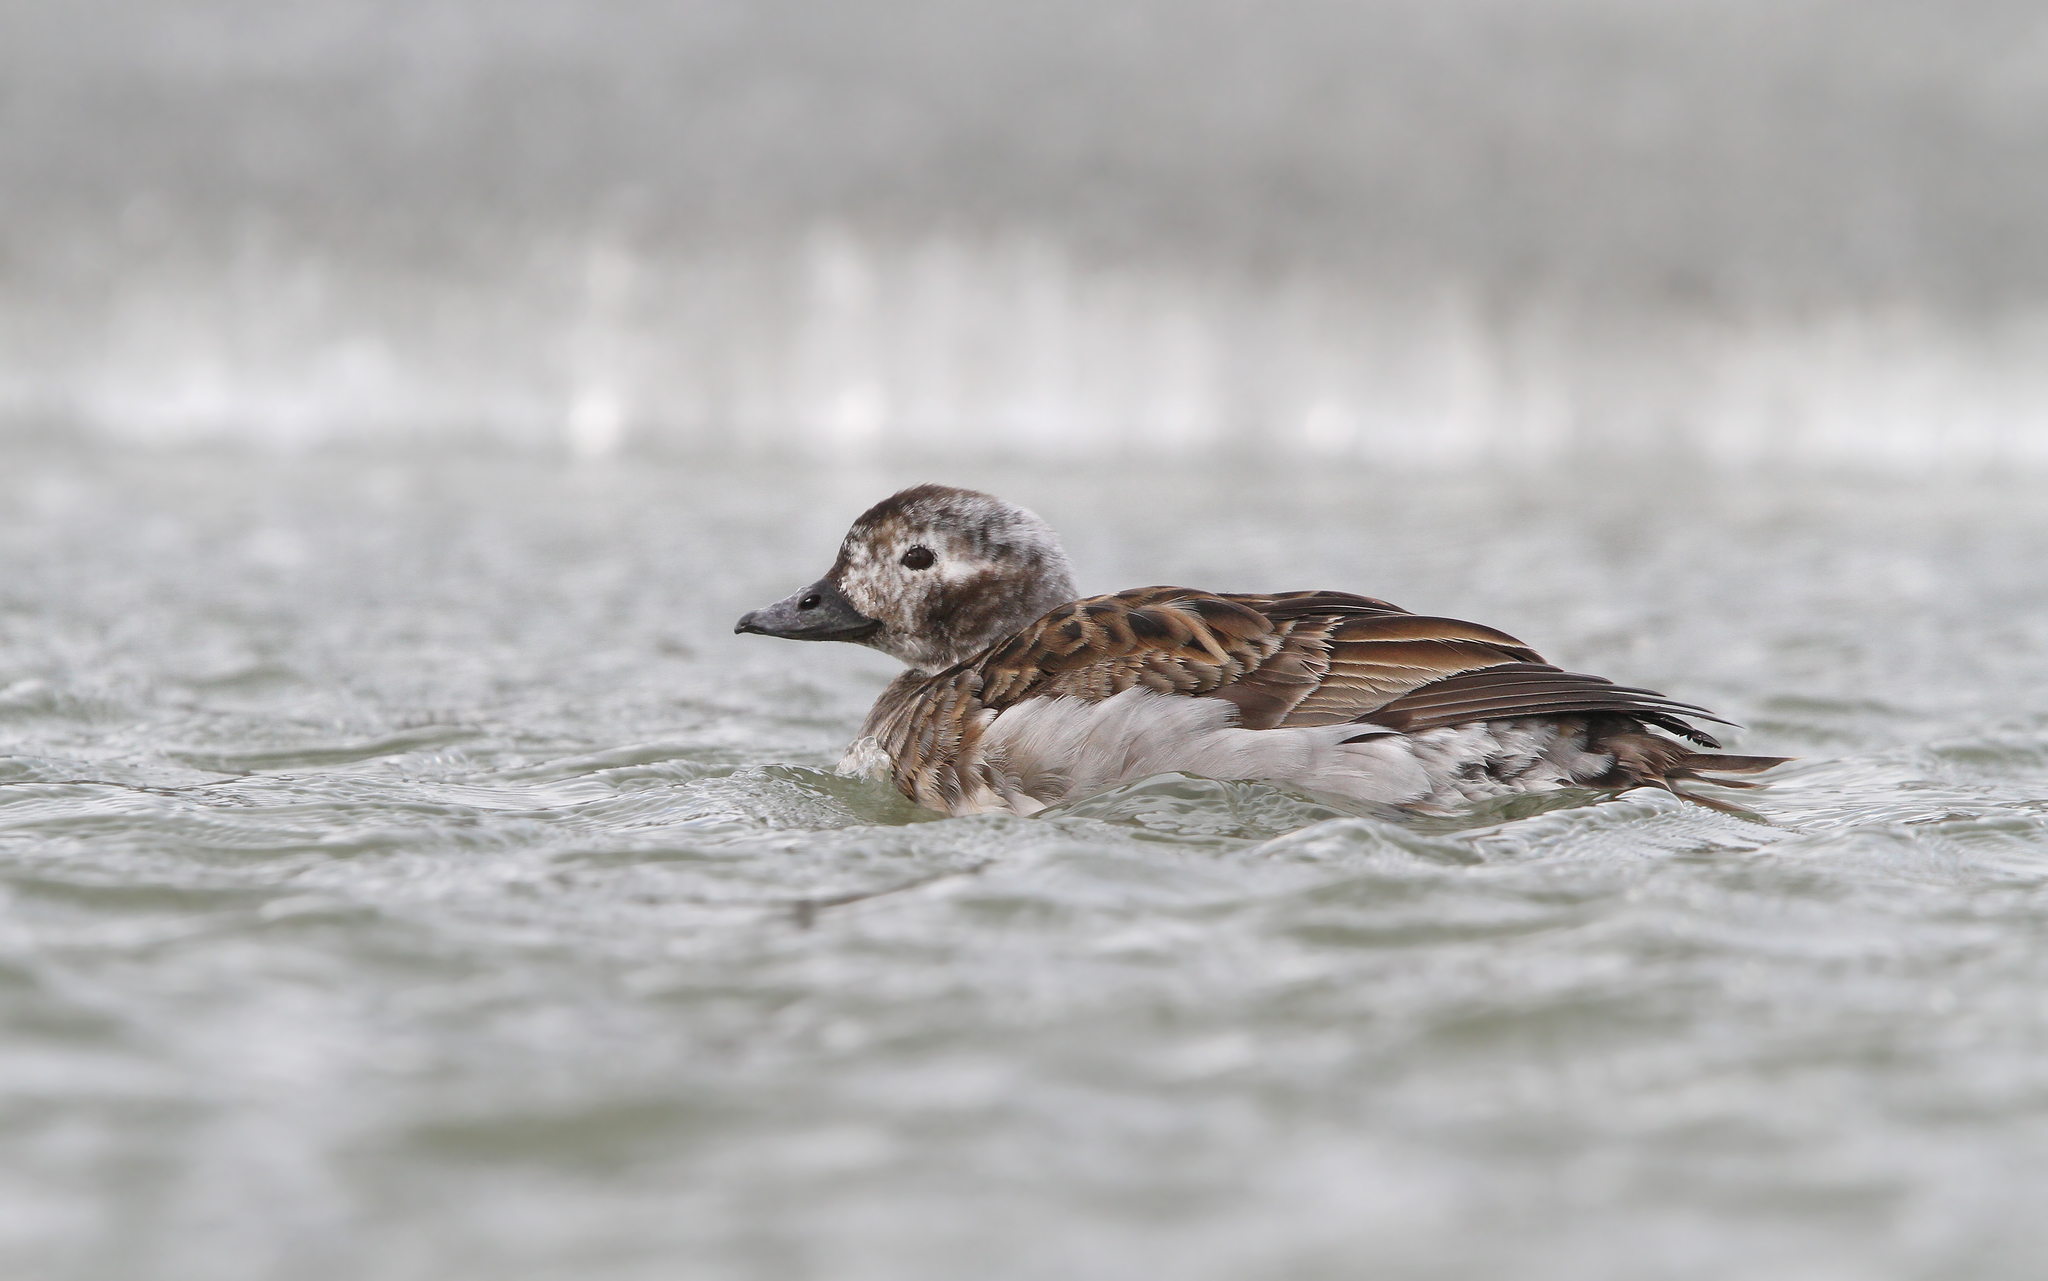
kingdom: Animalia
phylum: Chordata
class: Aves
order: Anseriformes
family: Anatidae
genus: Clangula
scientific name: Clangula hyemalis
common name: Long-tailed duck
